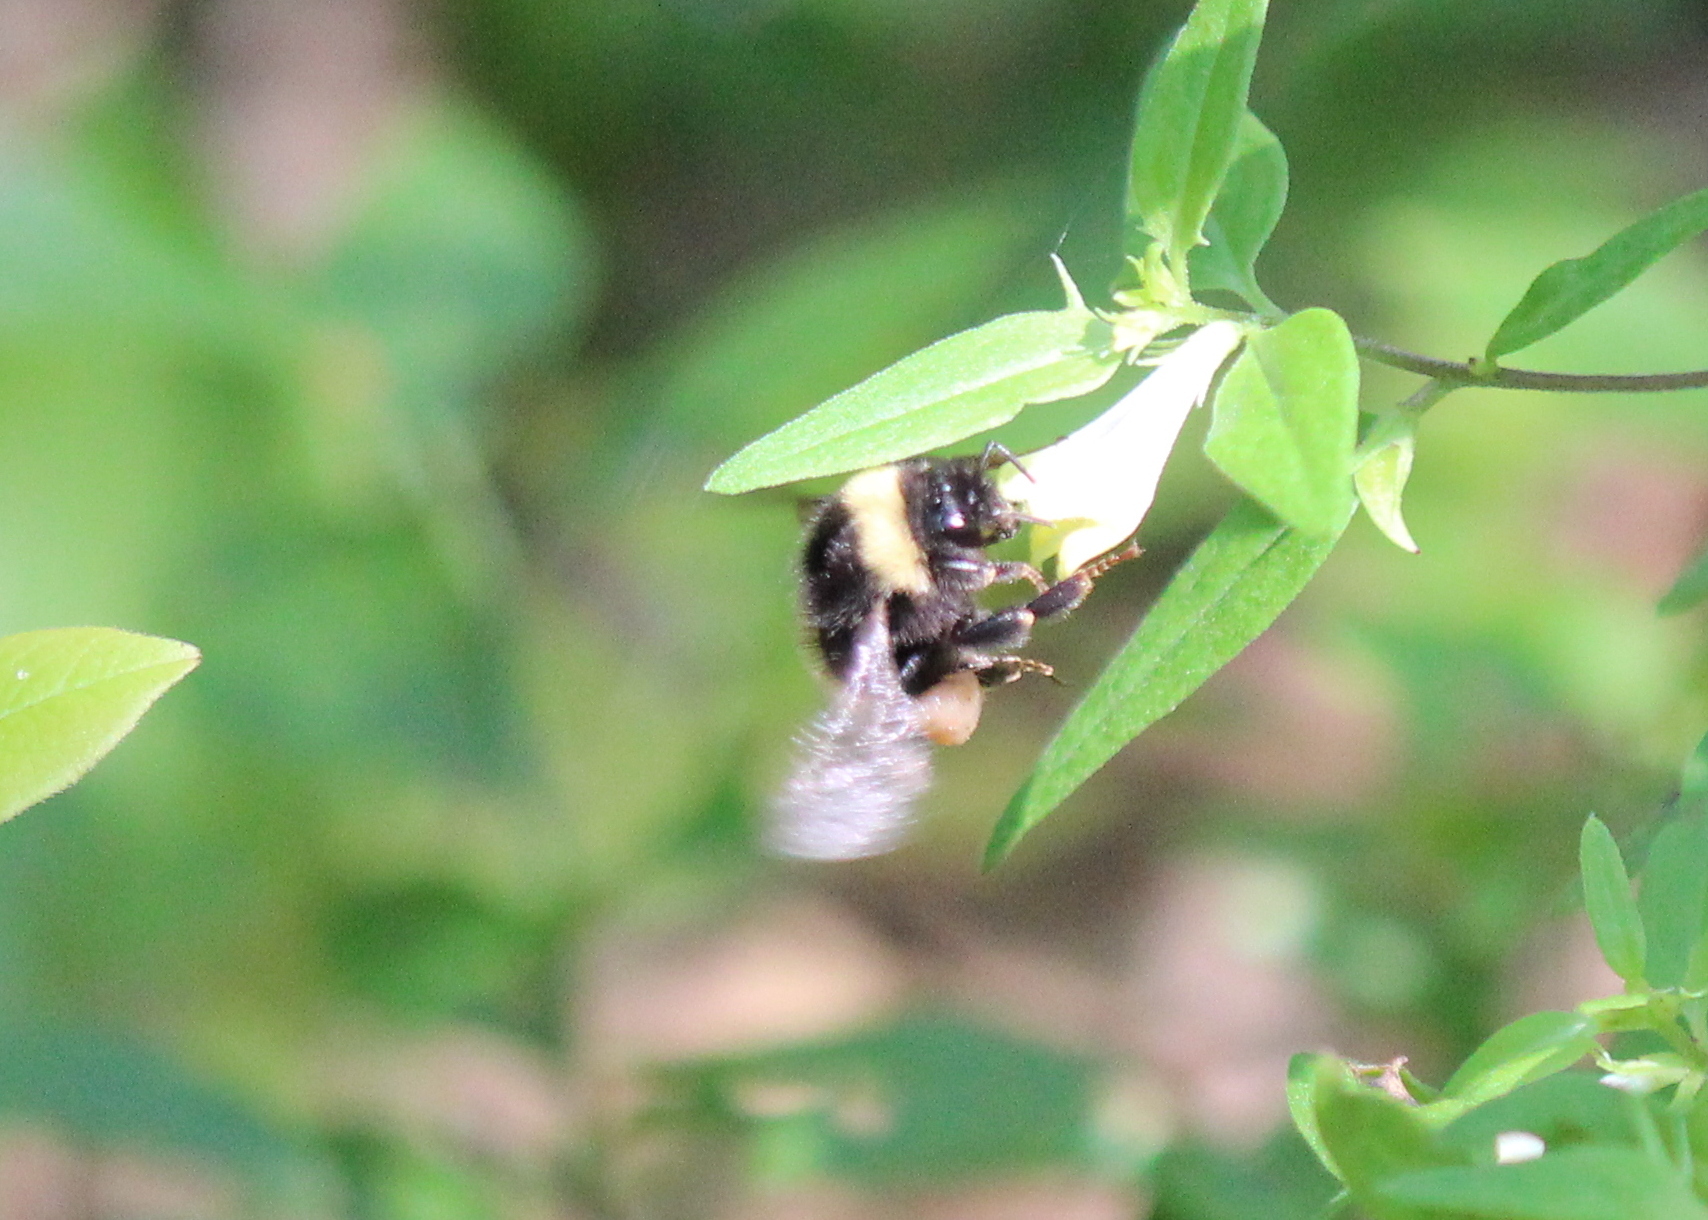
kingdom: Animalia
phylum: Arthropoda
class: Insecta
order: Hymenoptera
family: Apidae
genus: Bombus
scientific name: Bombus terricola
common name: Yellow-banded bumble bee
